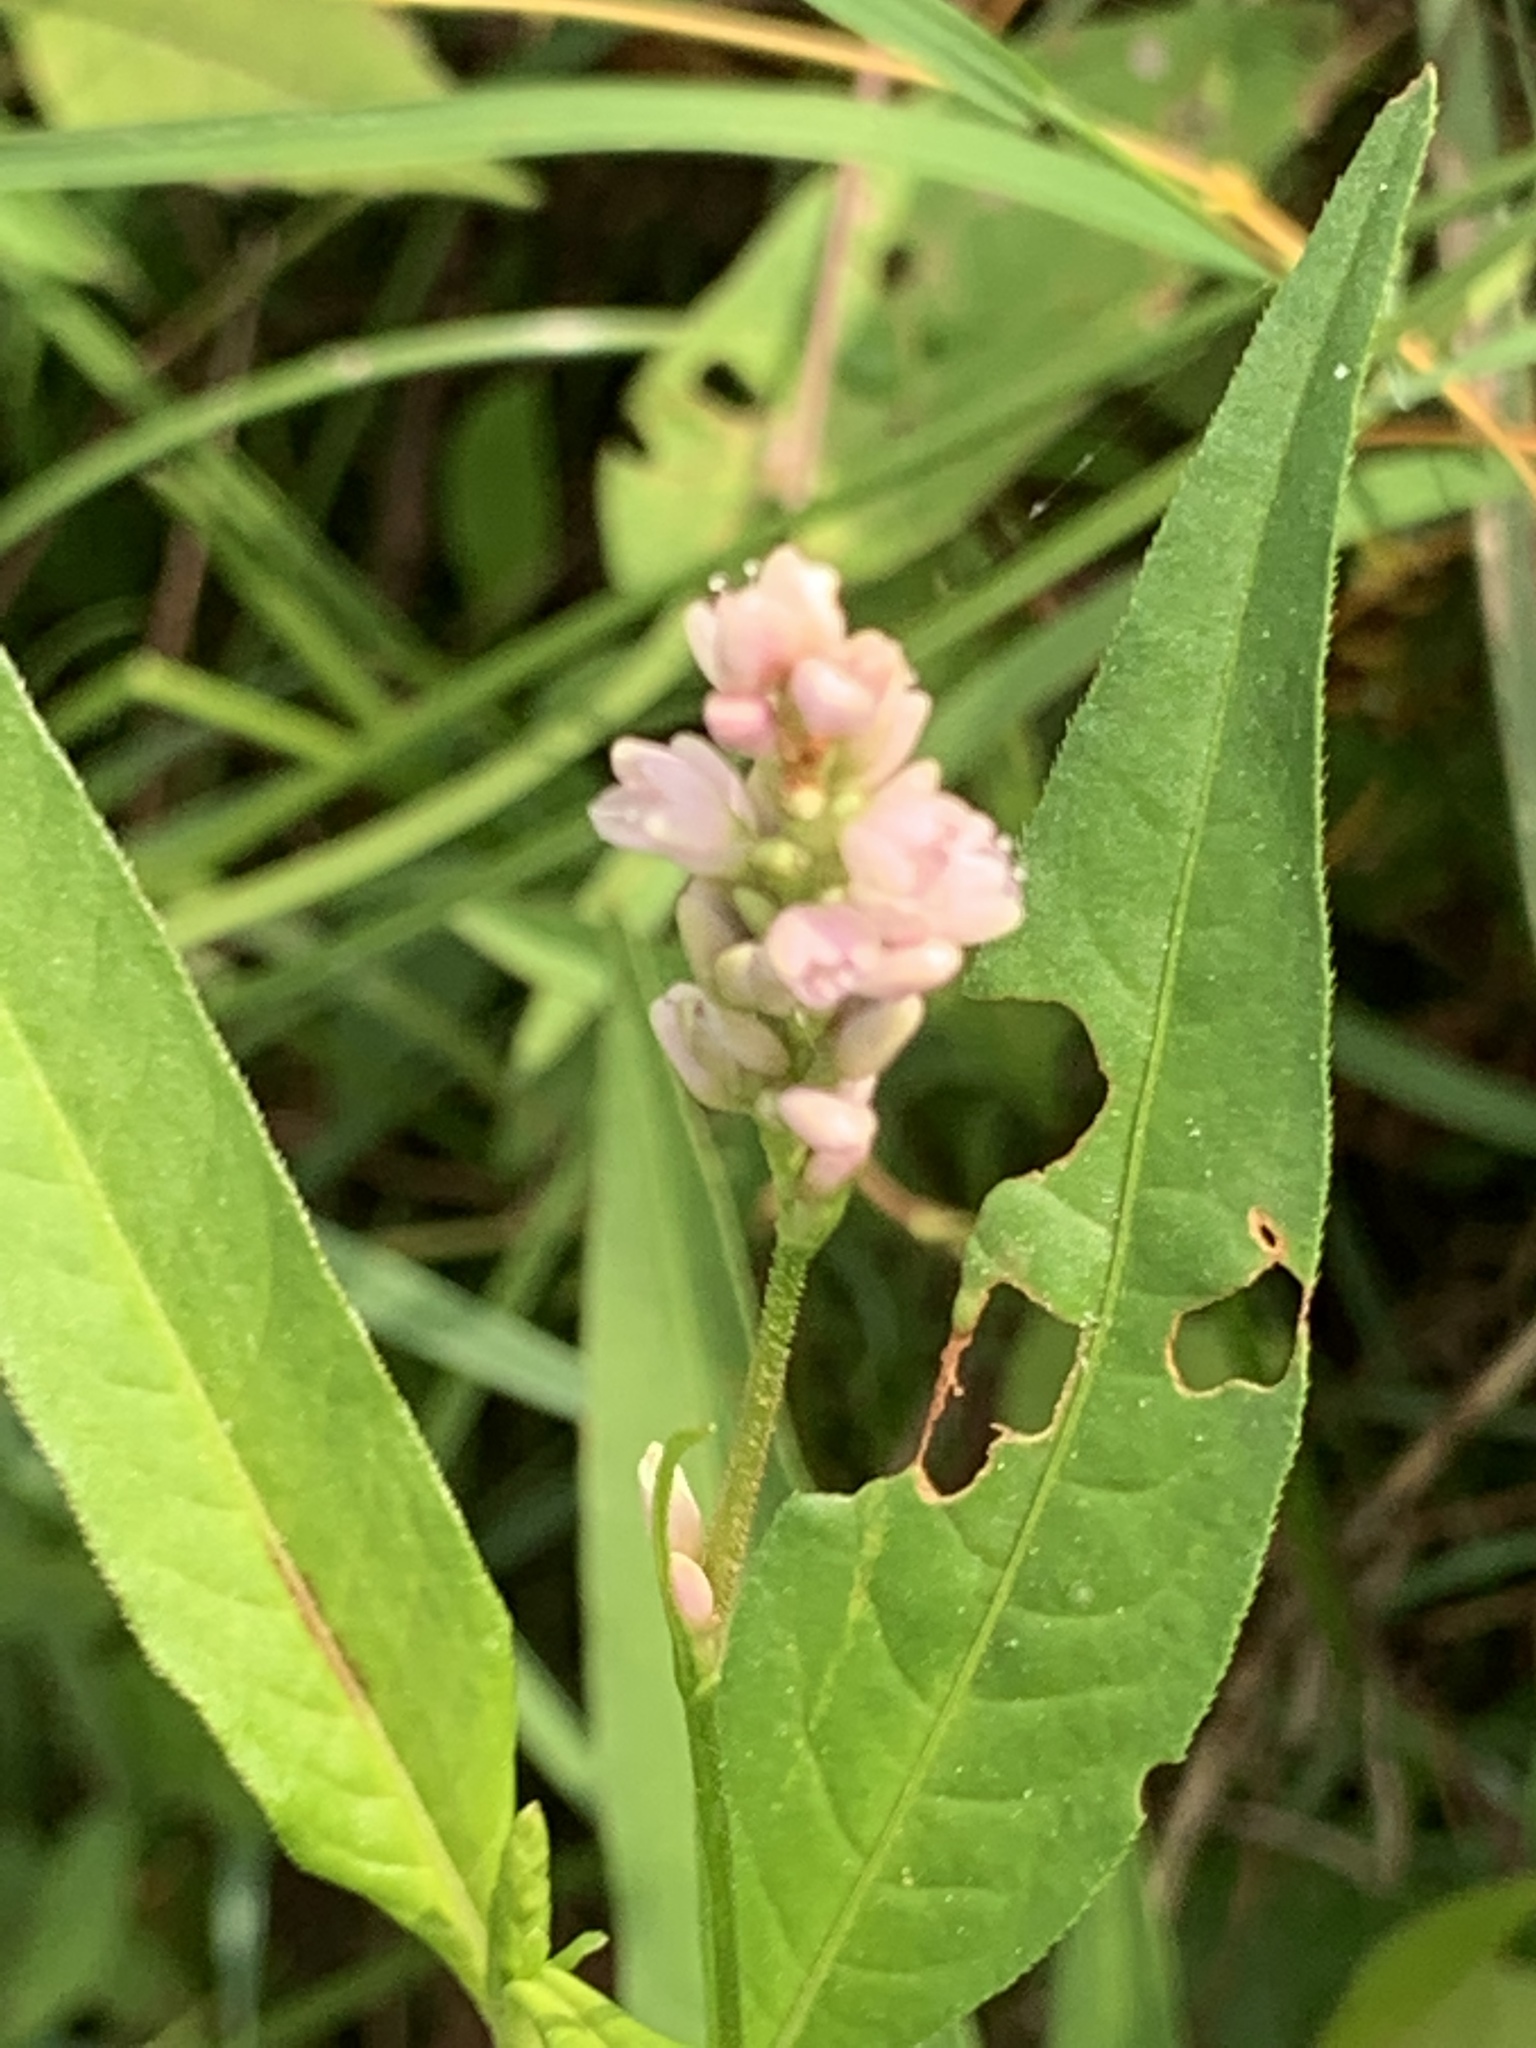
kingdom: Plantae
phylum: Tracheophyta
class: Magnoliopsida
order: Caryophyllales
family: Polygonaceae
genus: Persicaria
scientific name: Persicaria pensylvanica
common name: Pinkweed
